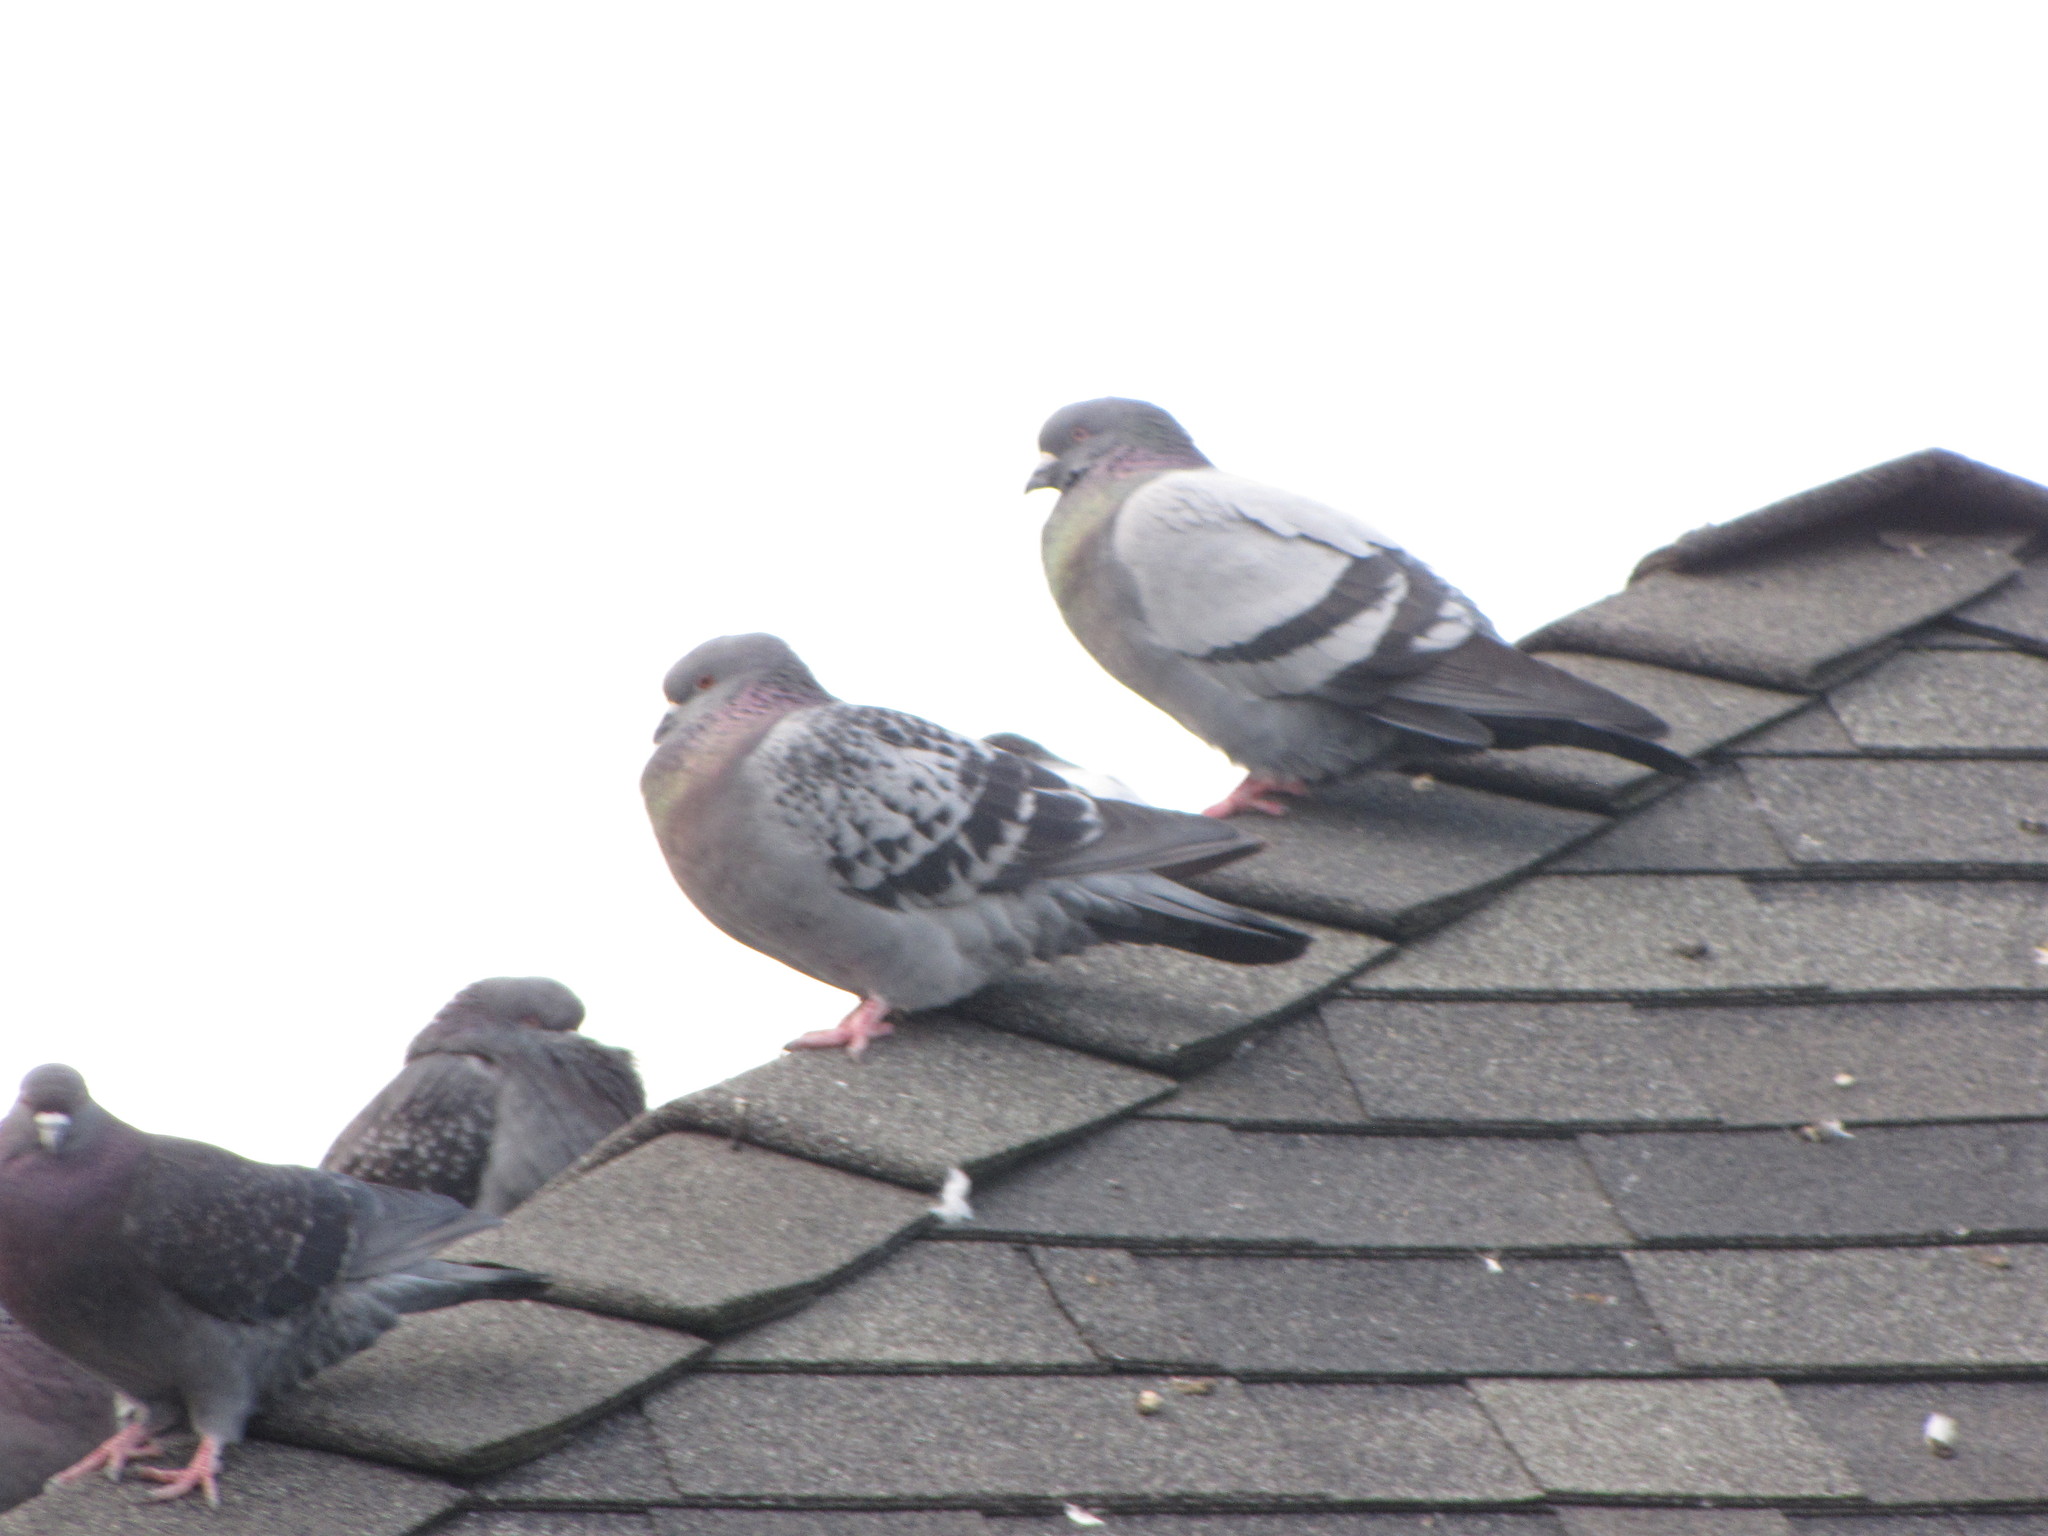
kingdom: Animalia
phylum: Chordata
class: Aves
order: Columbiformes
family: Columbidae
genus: Columba
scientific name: Columba livia
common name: Rock pigeon
